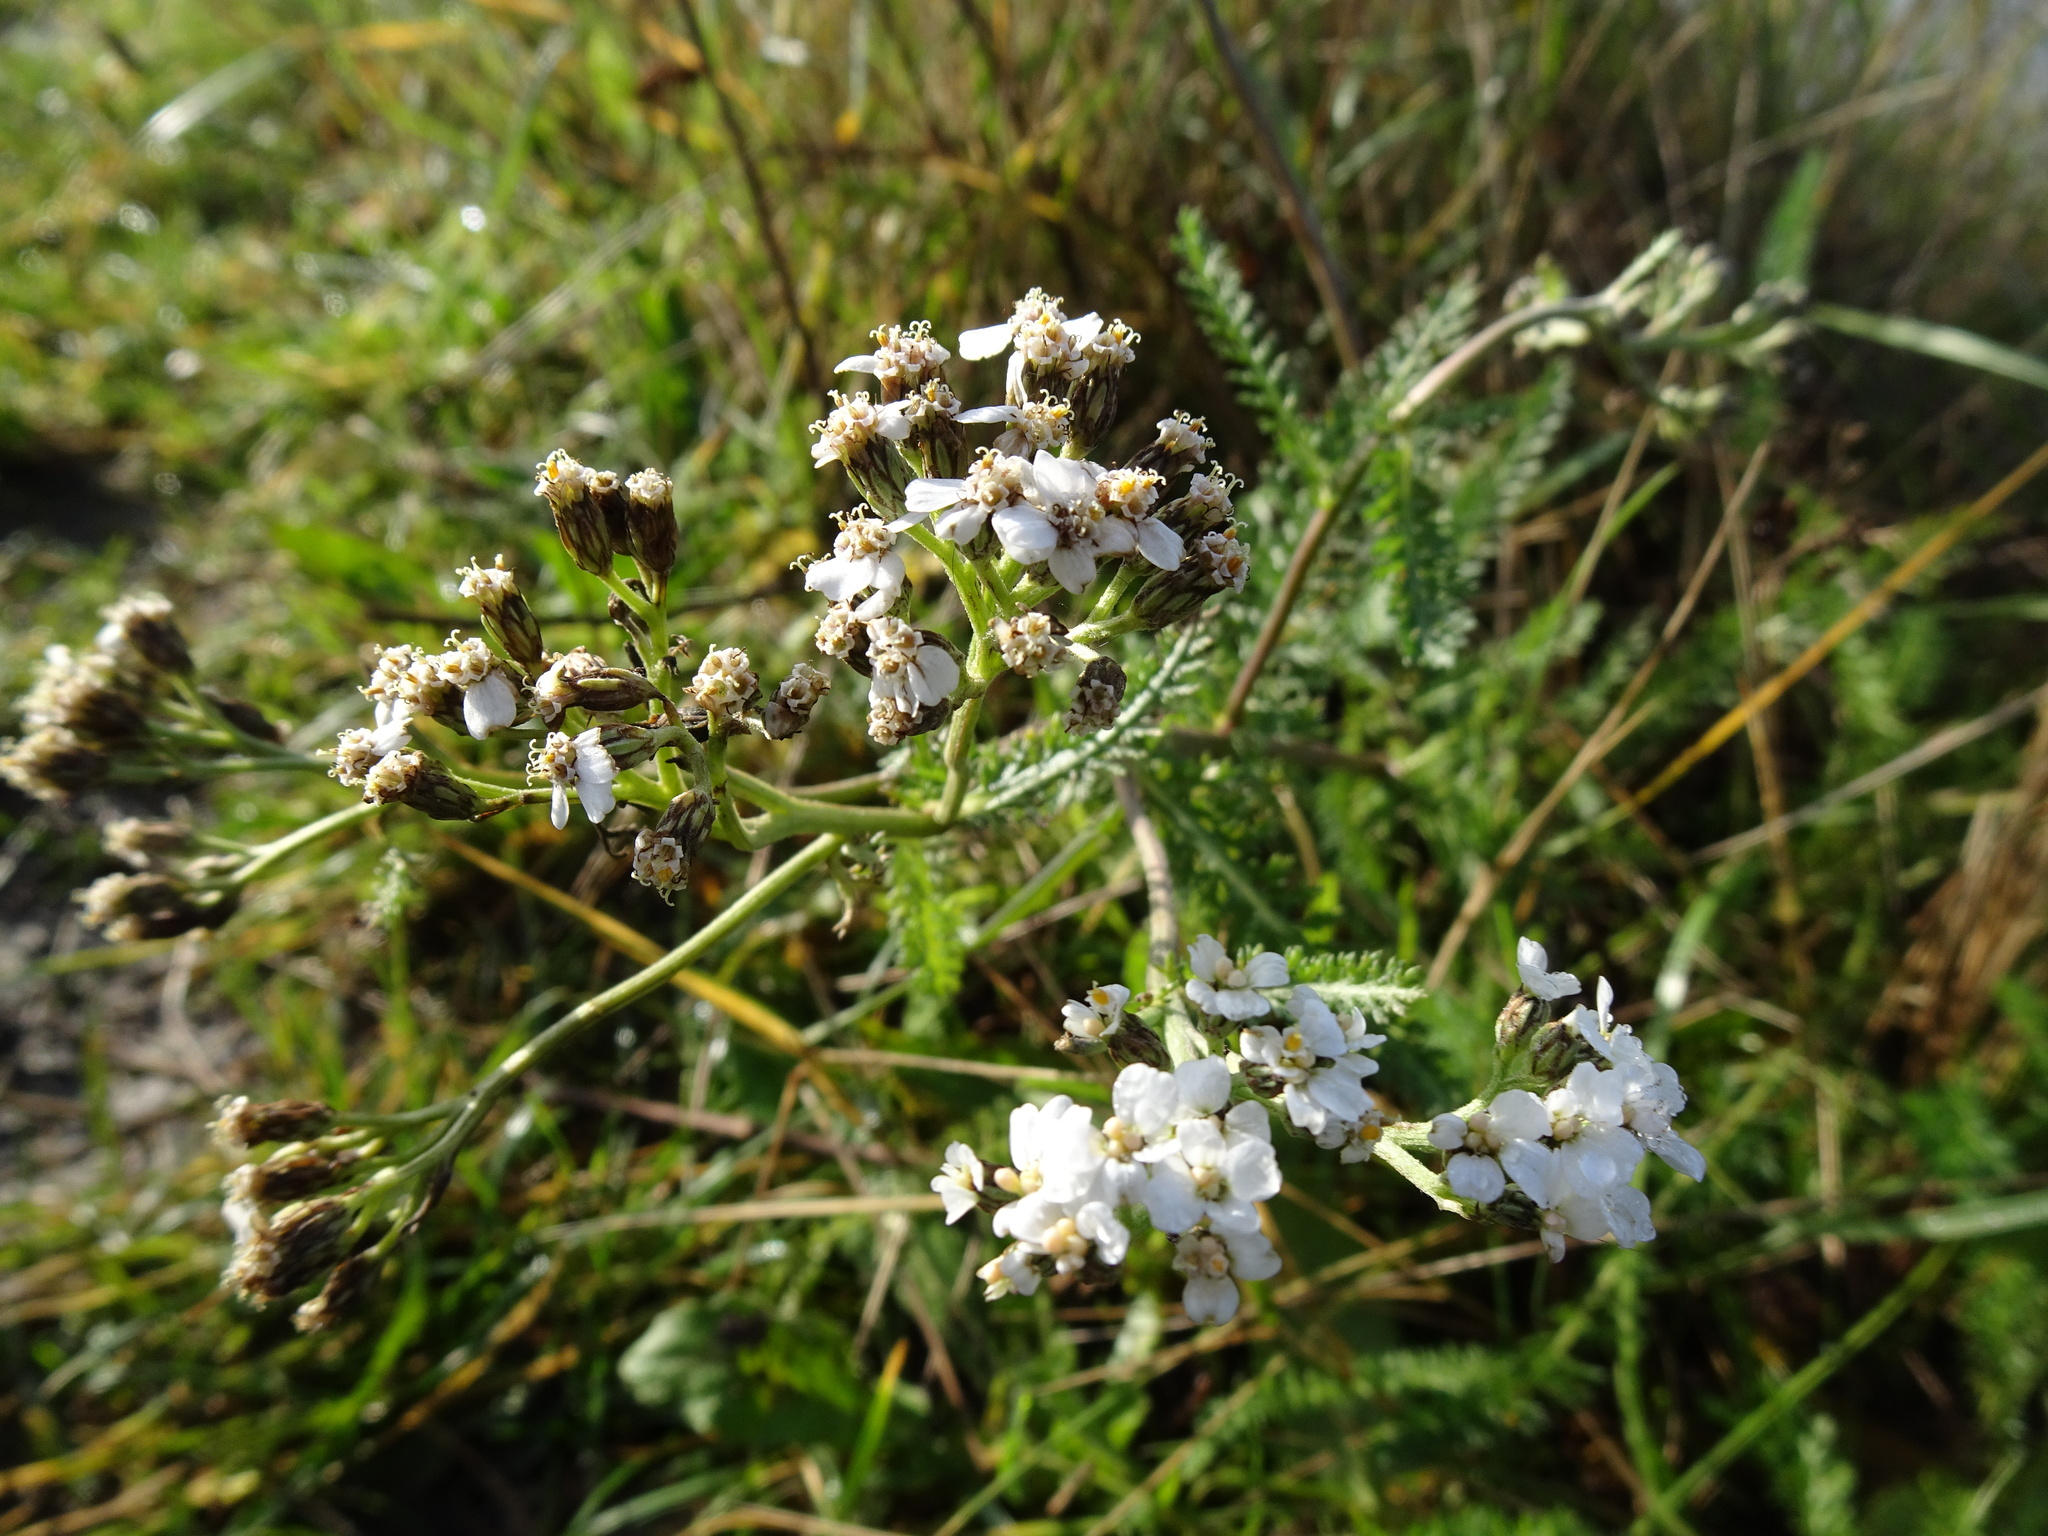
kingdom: Plantae
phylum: Tracheophyta
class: Magnoliopsida
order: Asterales
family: Asteraceae
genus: Achillea
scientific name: Achillea millefolium
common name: Yarrow
